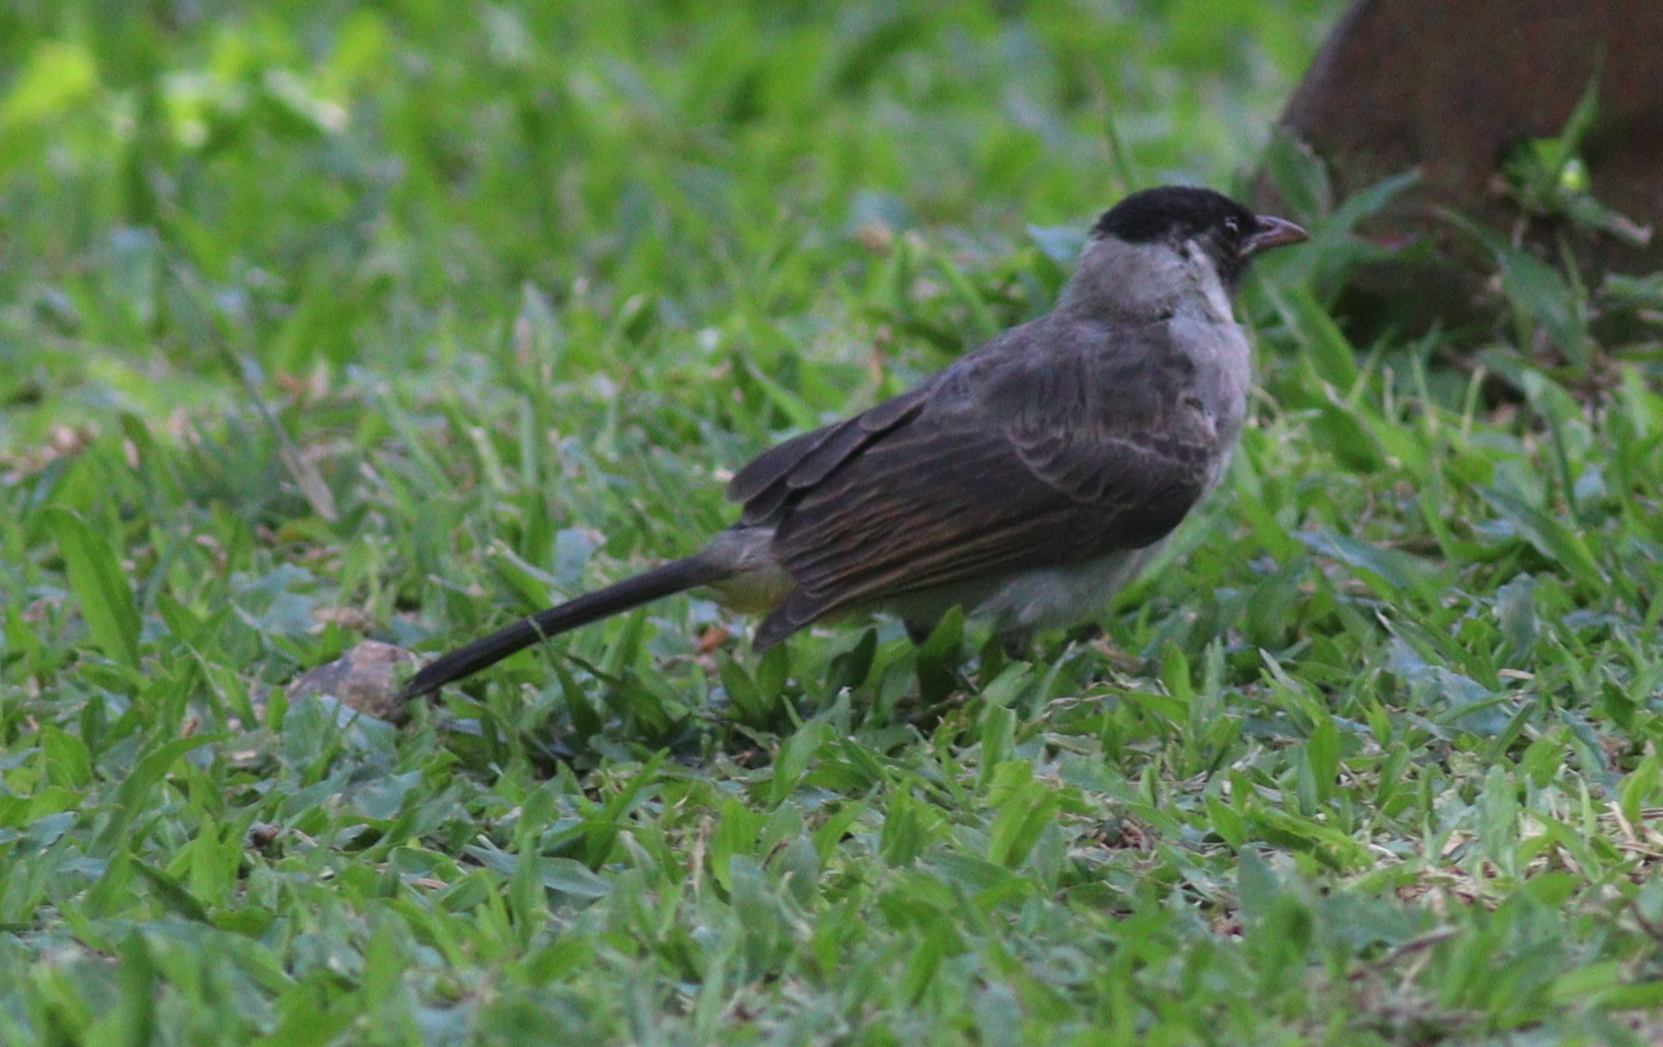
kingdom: Animalia
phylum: Chordata
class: Aves
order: Passeriformes
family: Pycnonotidae
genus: Pycnonotus
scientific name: Pycnonotus aurigaster
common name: Sooty-headed bulbul
